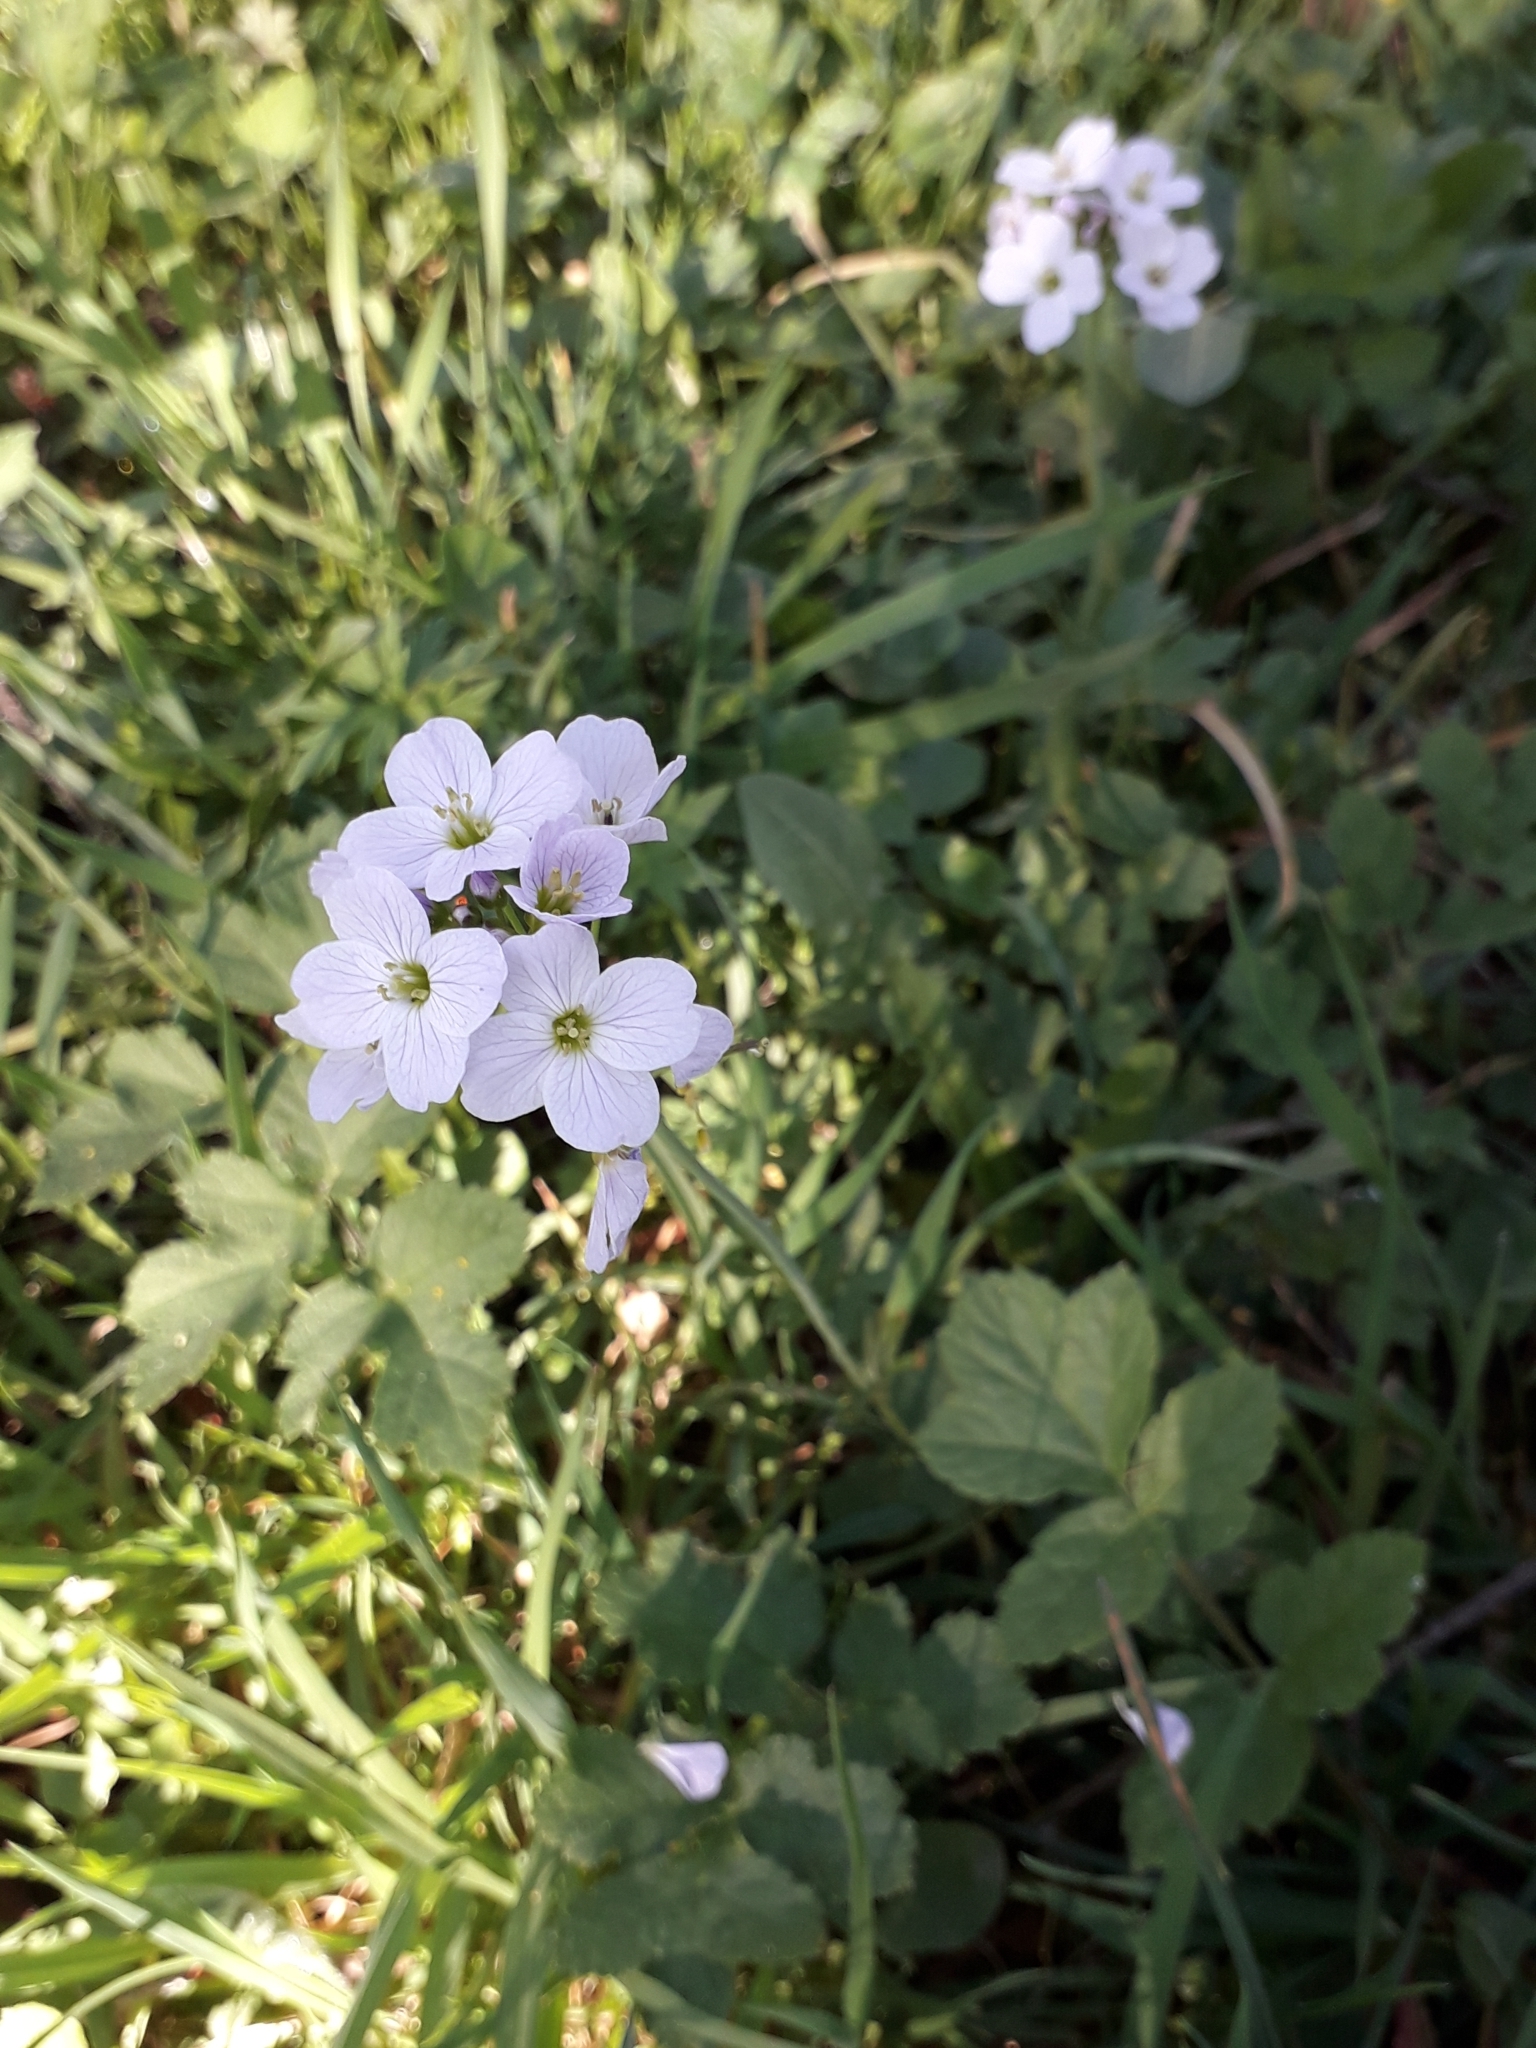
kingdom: Plantae
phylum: Tracheophyta
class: Magnoliopsida
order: Brassicales
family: Brassicaceae
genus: Cardamine
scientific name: Cardamine pratensis
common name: Cuckoo flower
